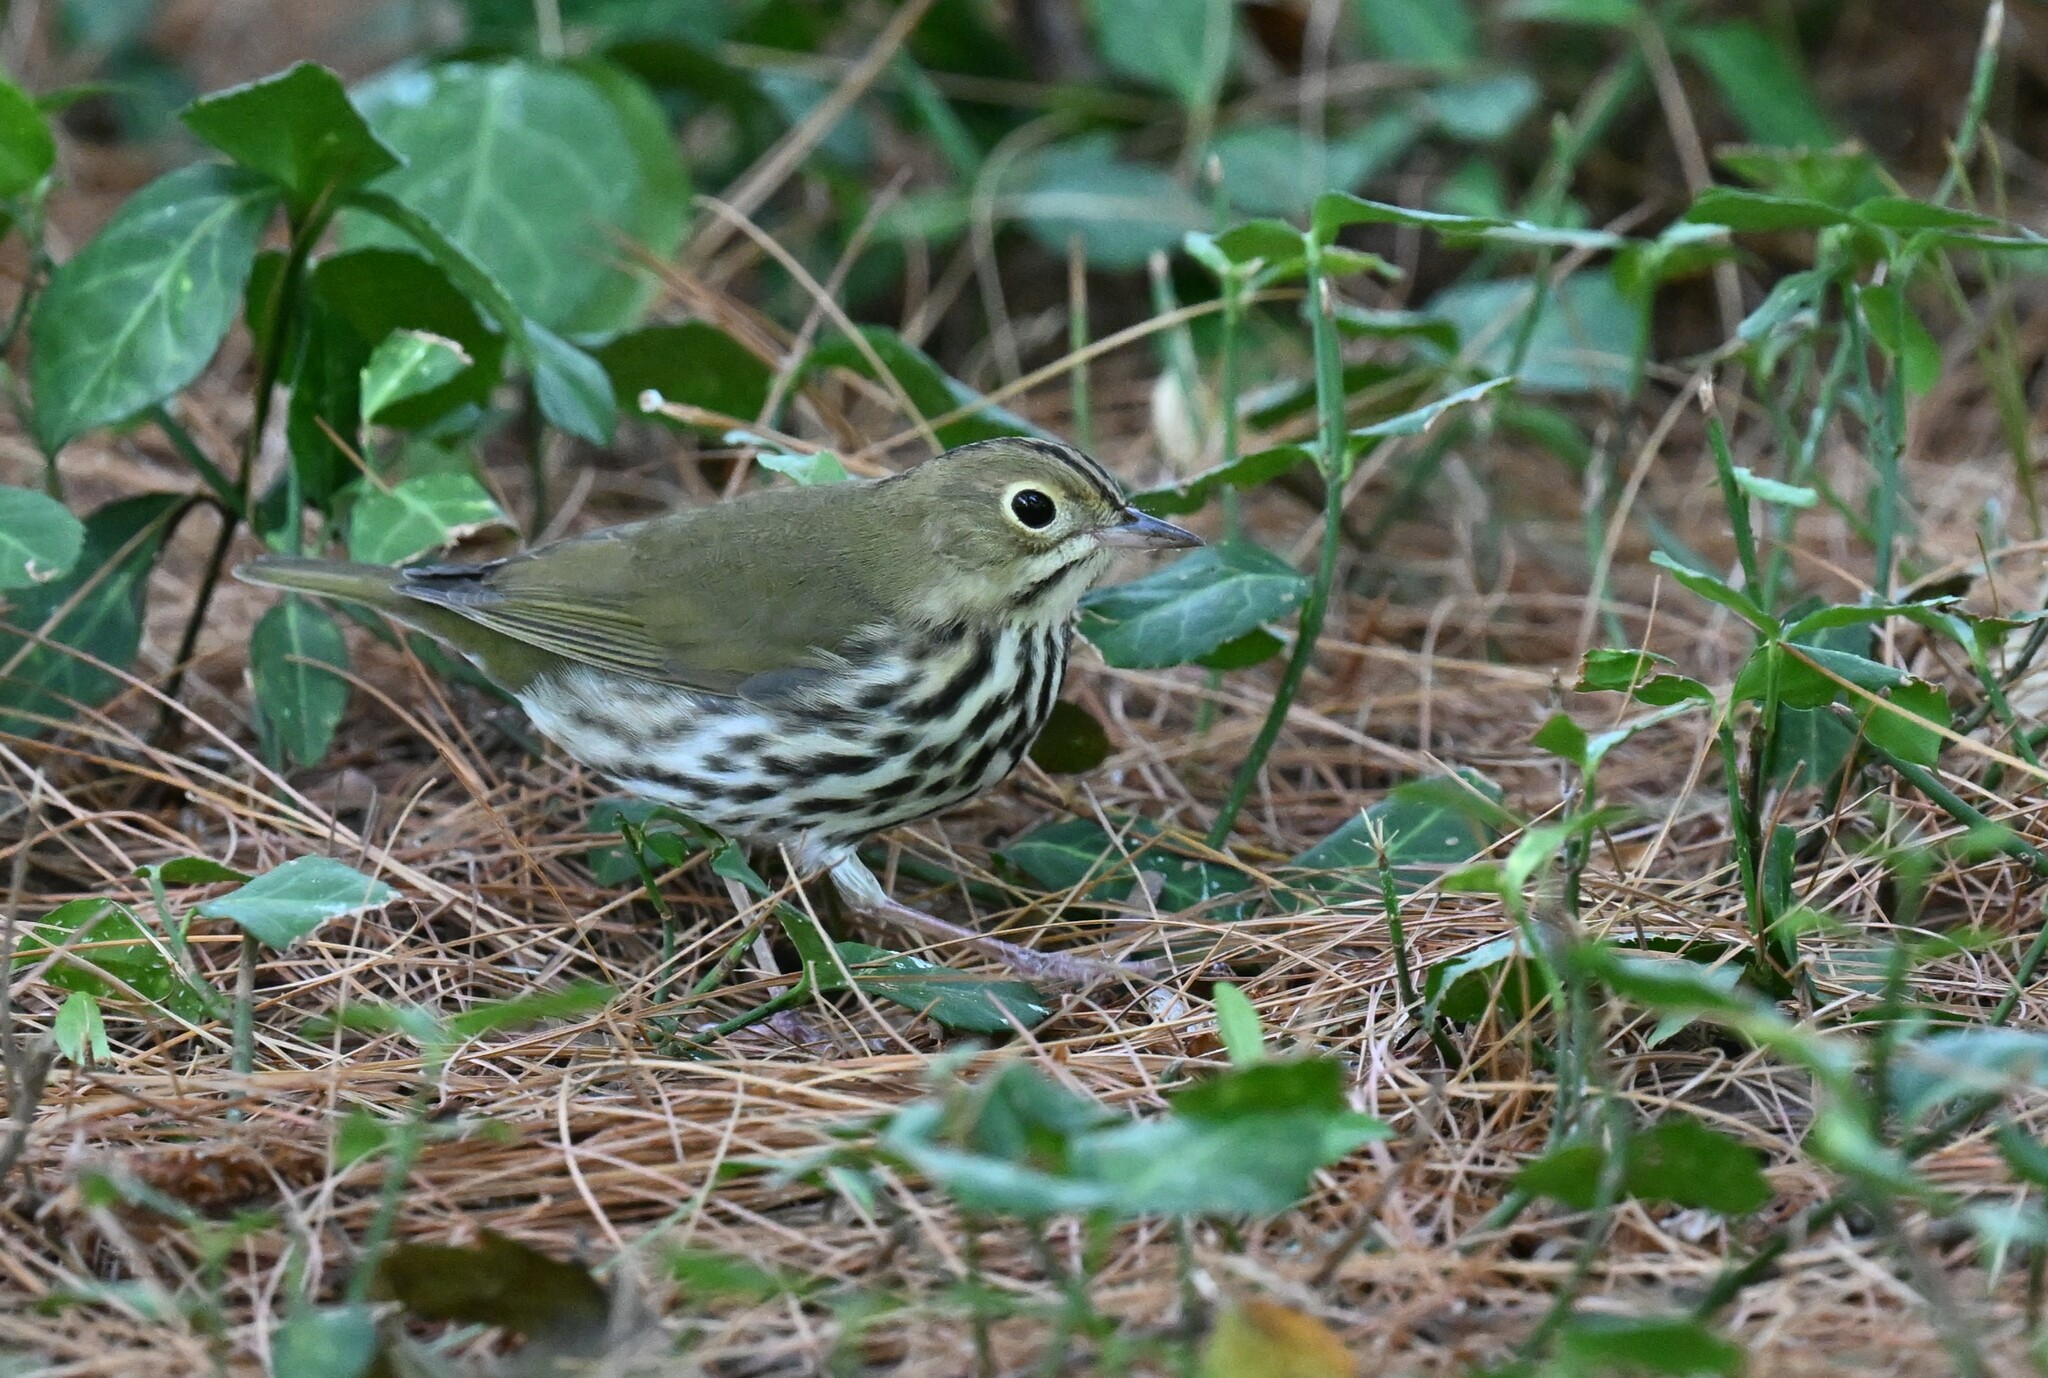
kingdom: Animalia
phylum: Chordata
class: Aves
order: Passeriformes
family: Parulidae
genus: Seiurus
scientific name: Seiurus aurocapilla
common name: Ovenbird
